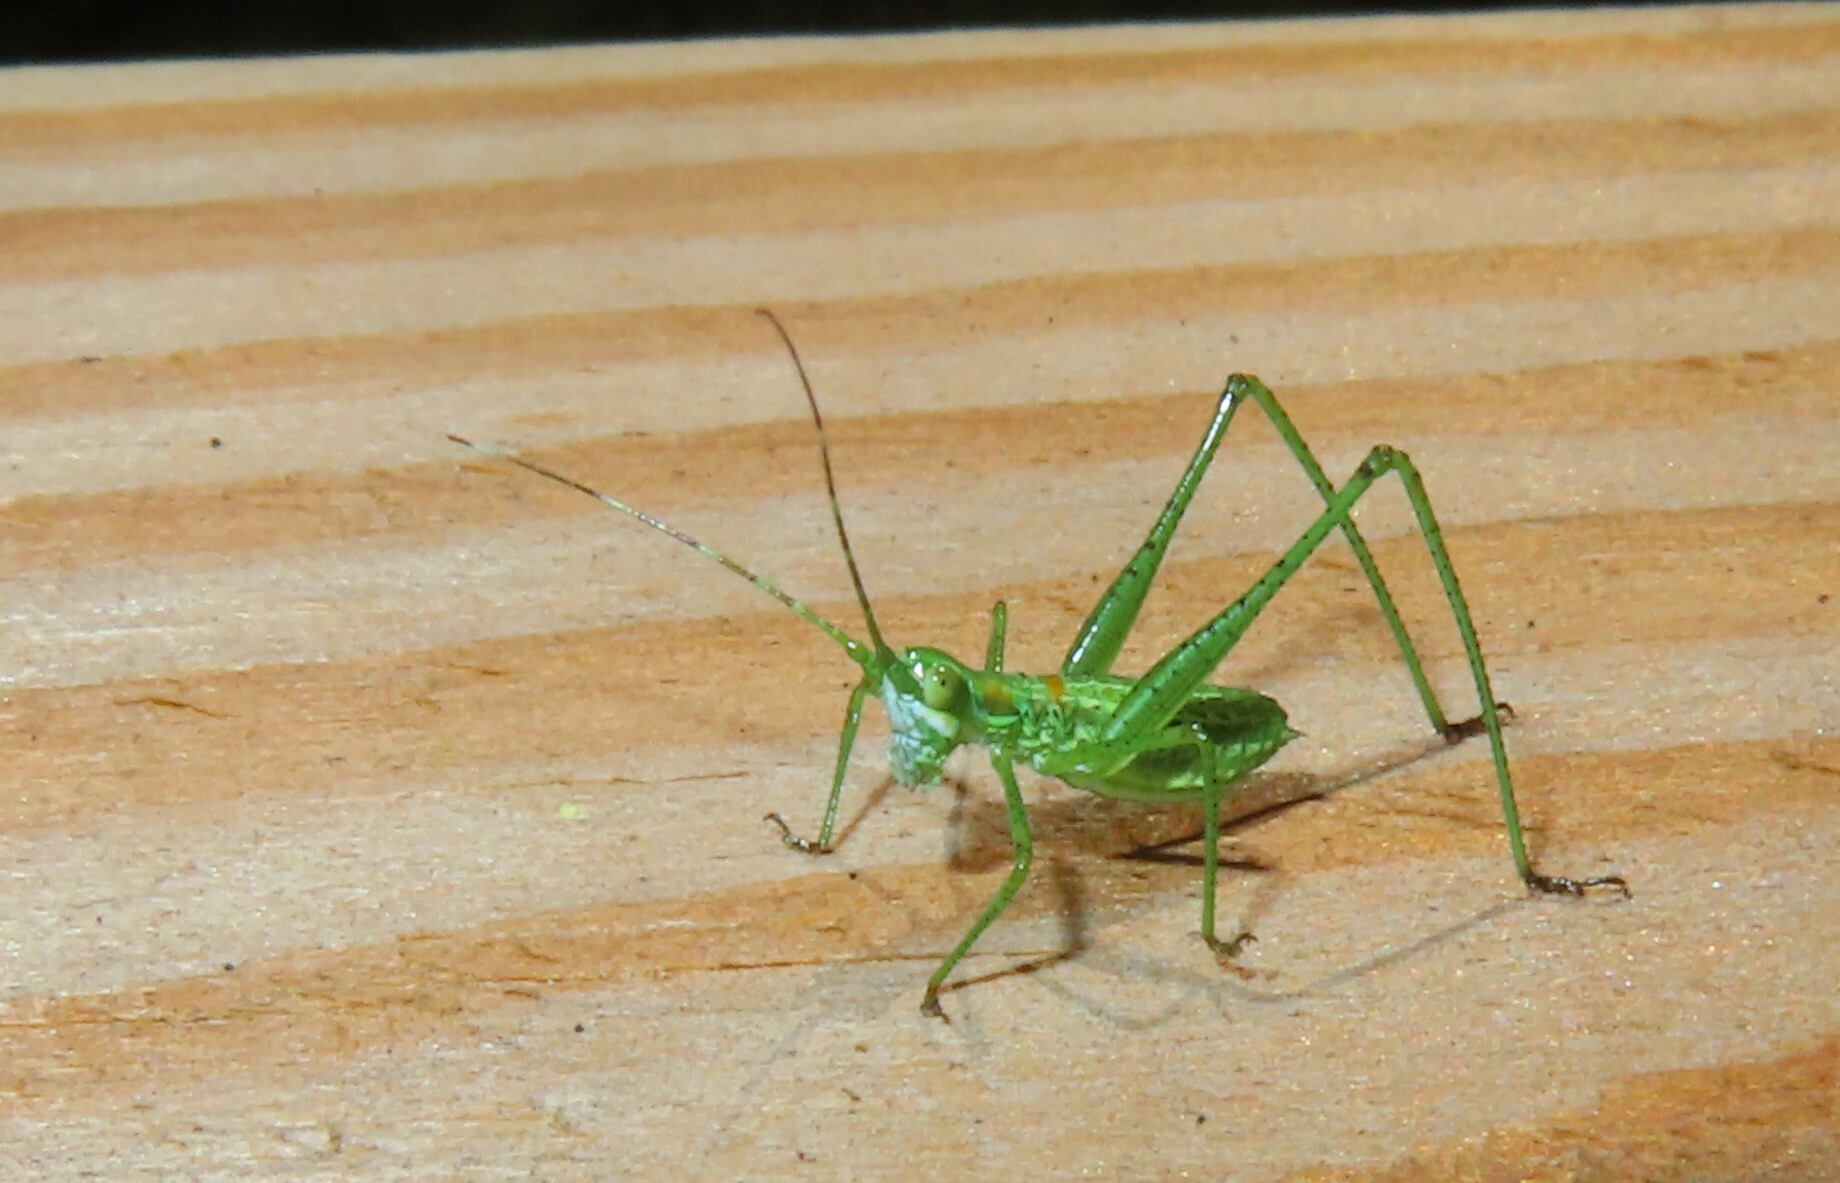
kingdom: Animalia
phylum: Arthropoda
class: Insecta
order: Orthoptera
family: Tettigoniidae
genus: Inscudderia
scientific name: Inscudderia taxodii
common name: Western cypress katydid
